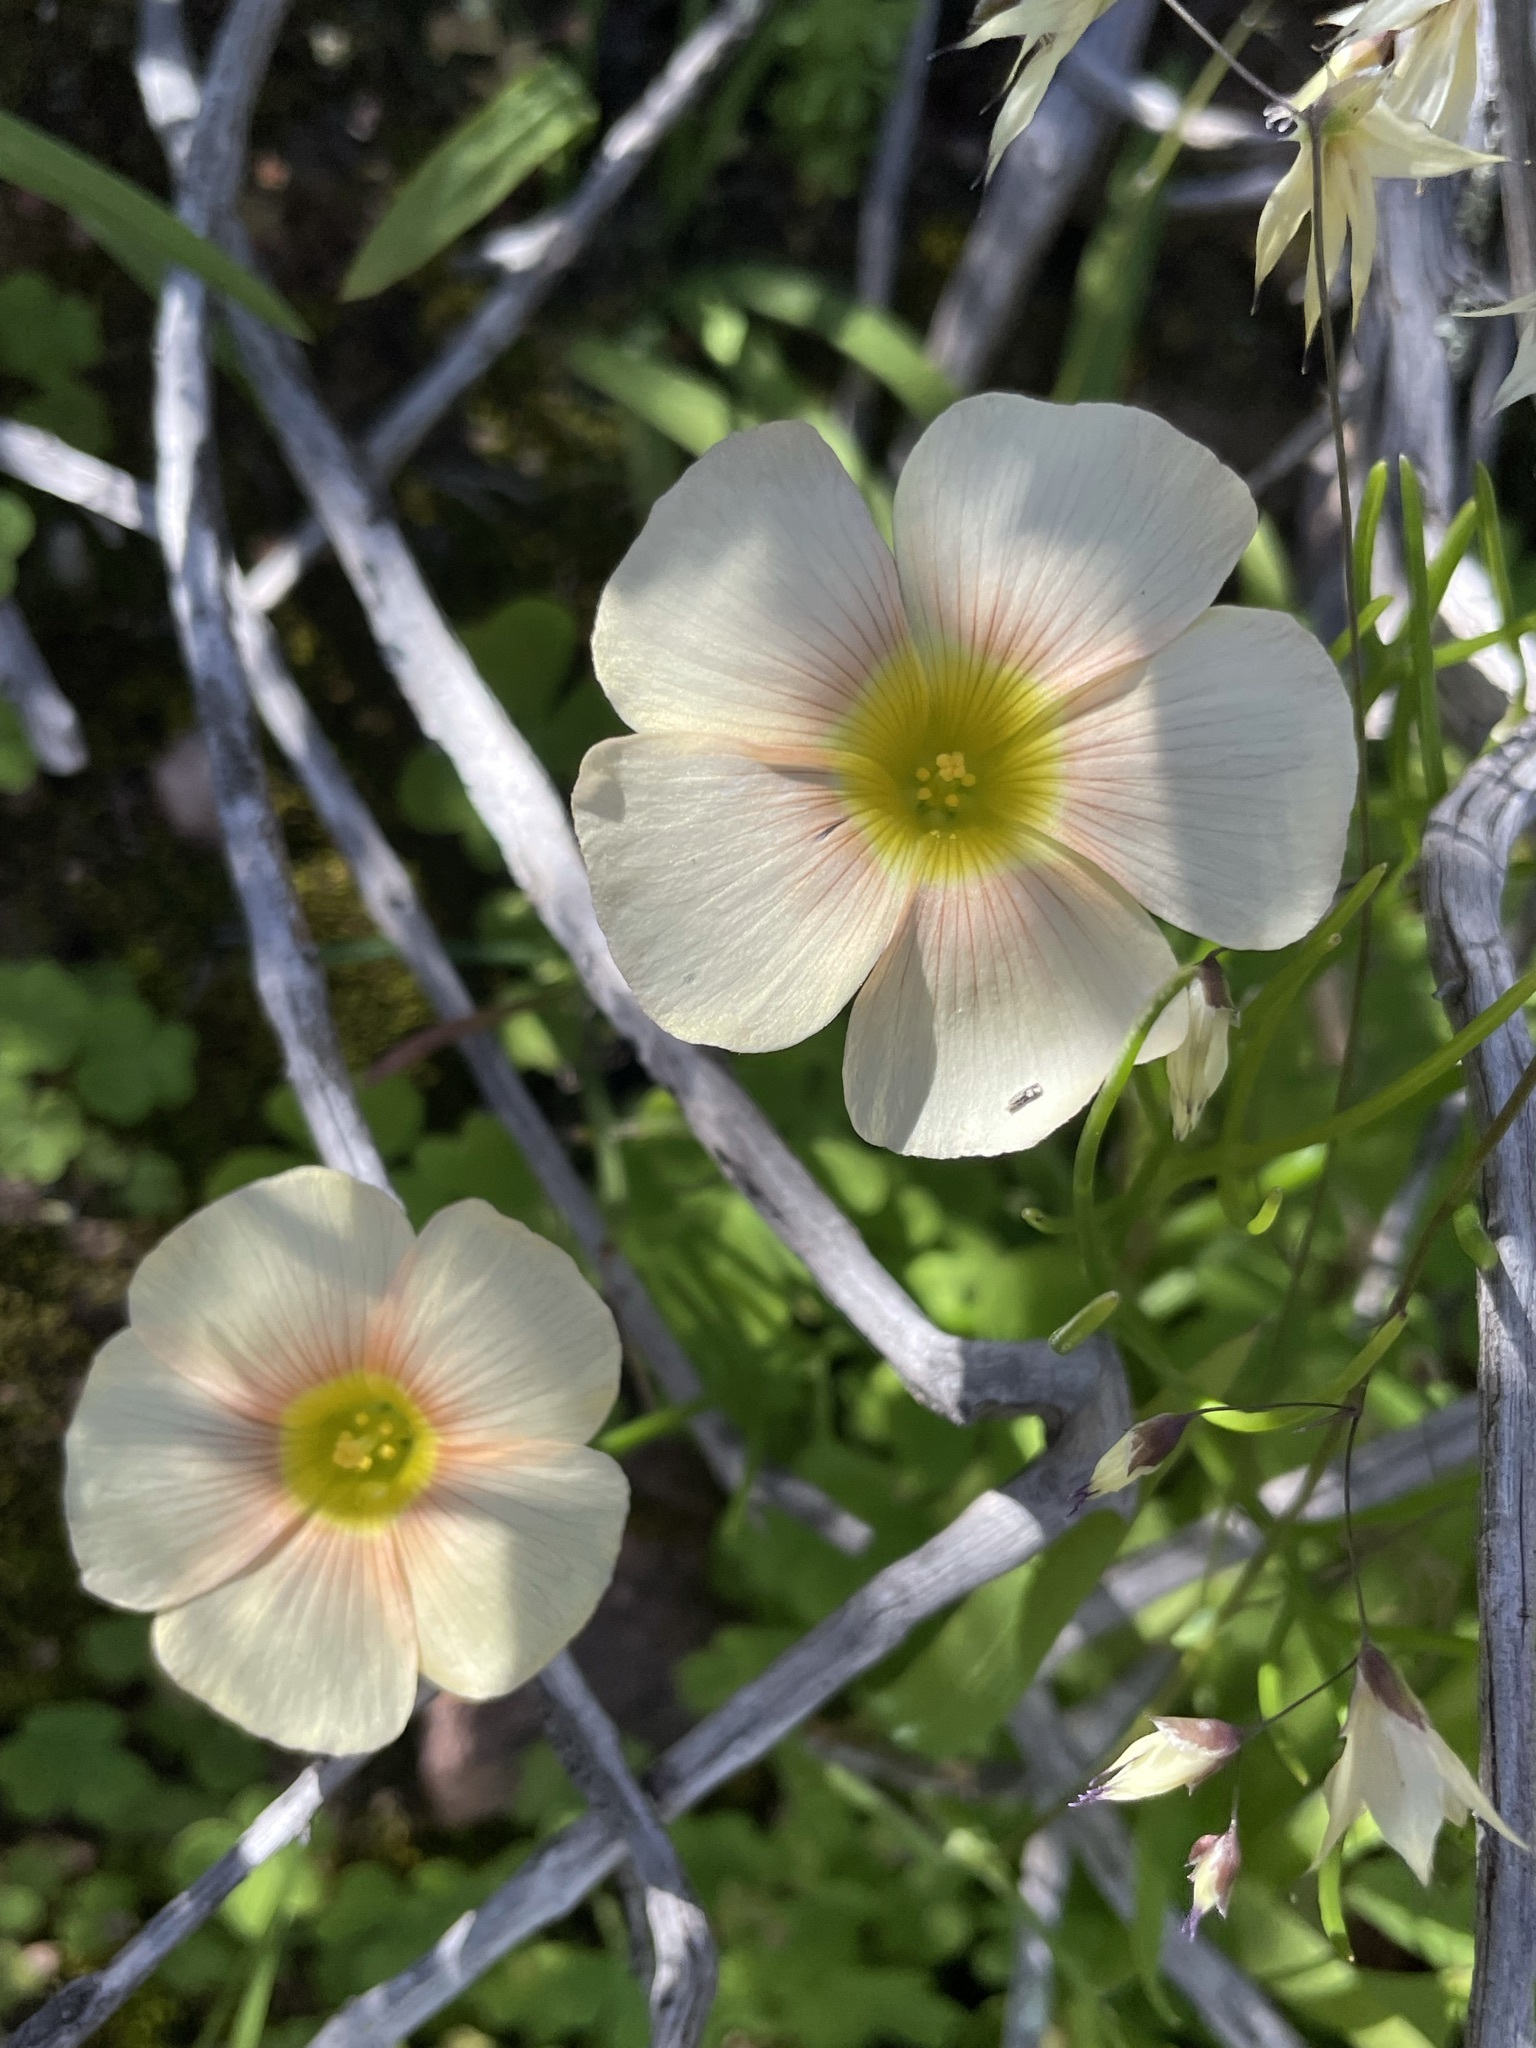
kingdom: Plantae
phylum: Tracheophyta
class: Magnoliopsida
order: Oxalidales
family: Oxalidaceae
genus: Oxalis
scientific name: Oxalis obtusa
